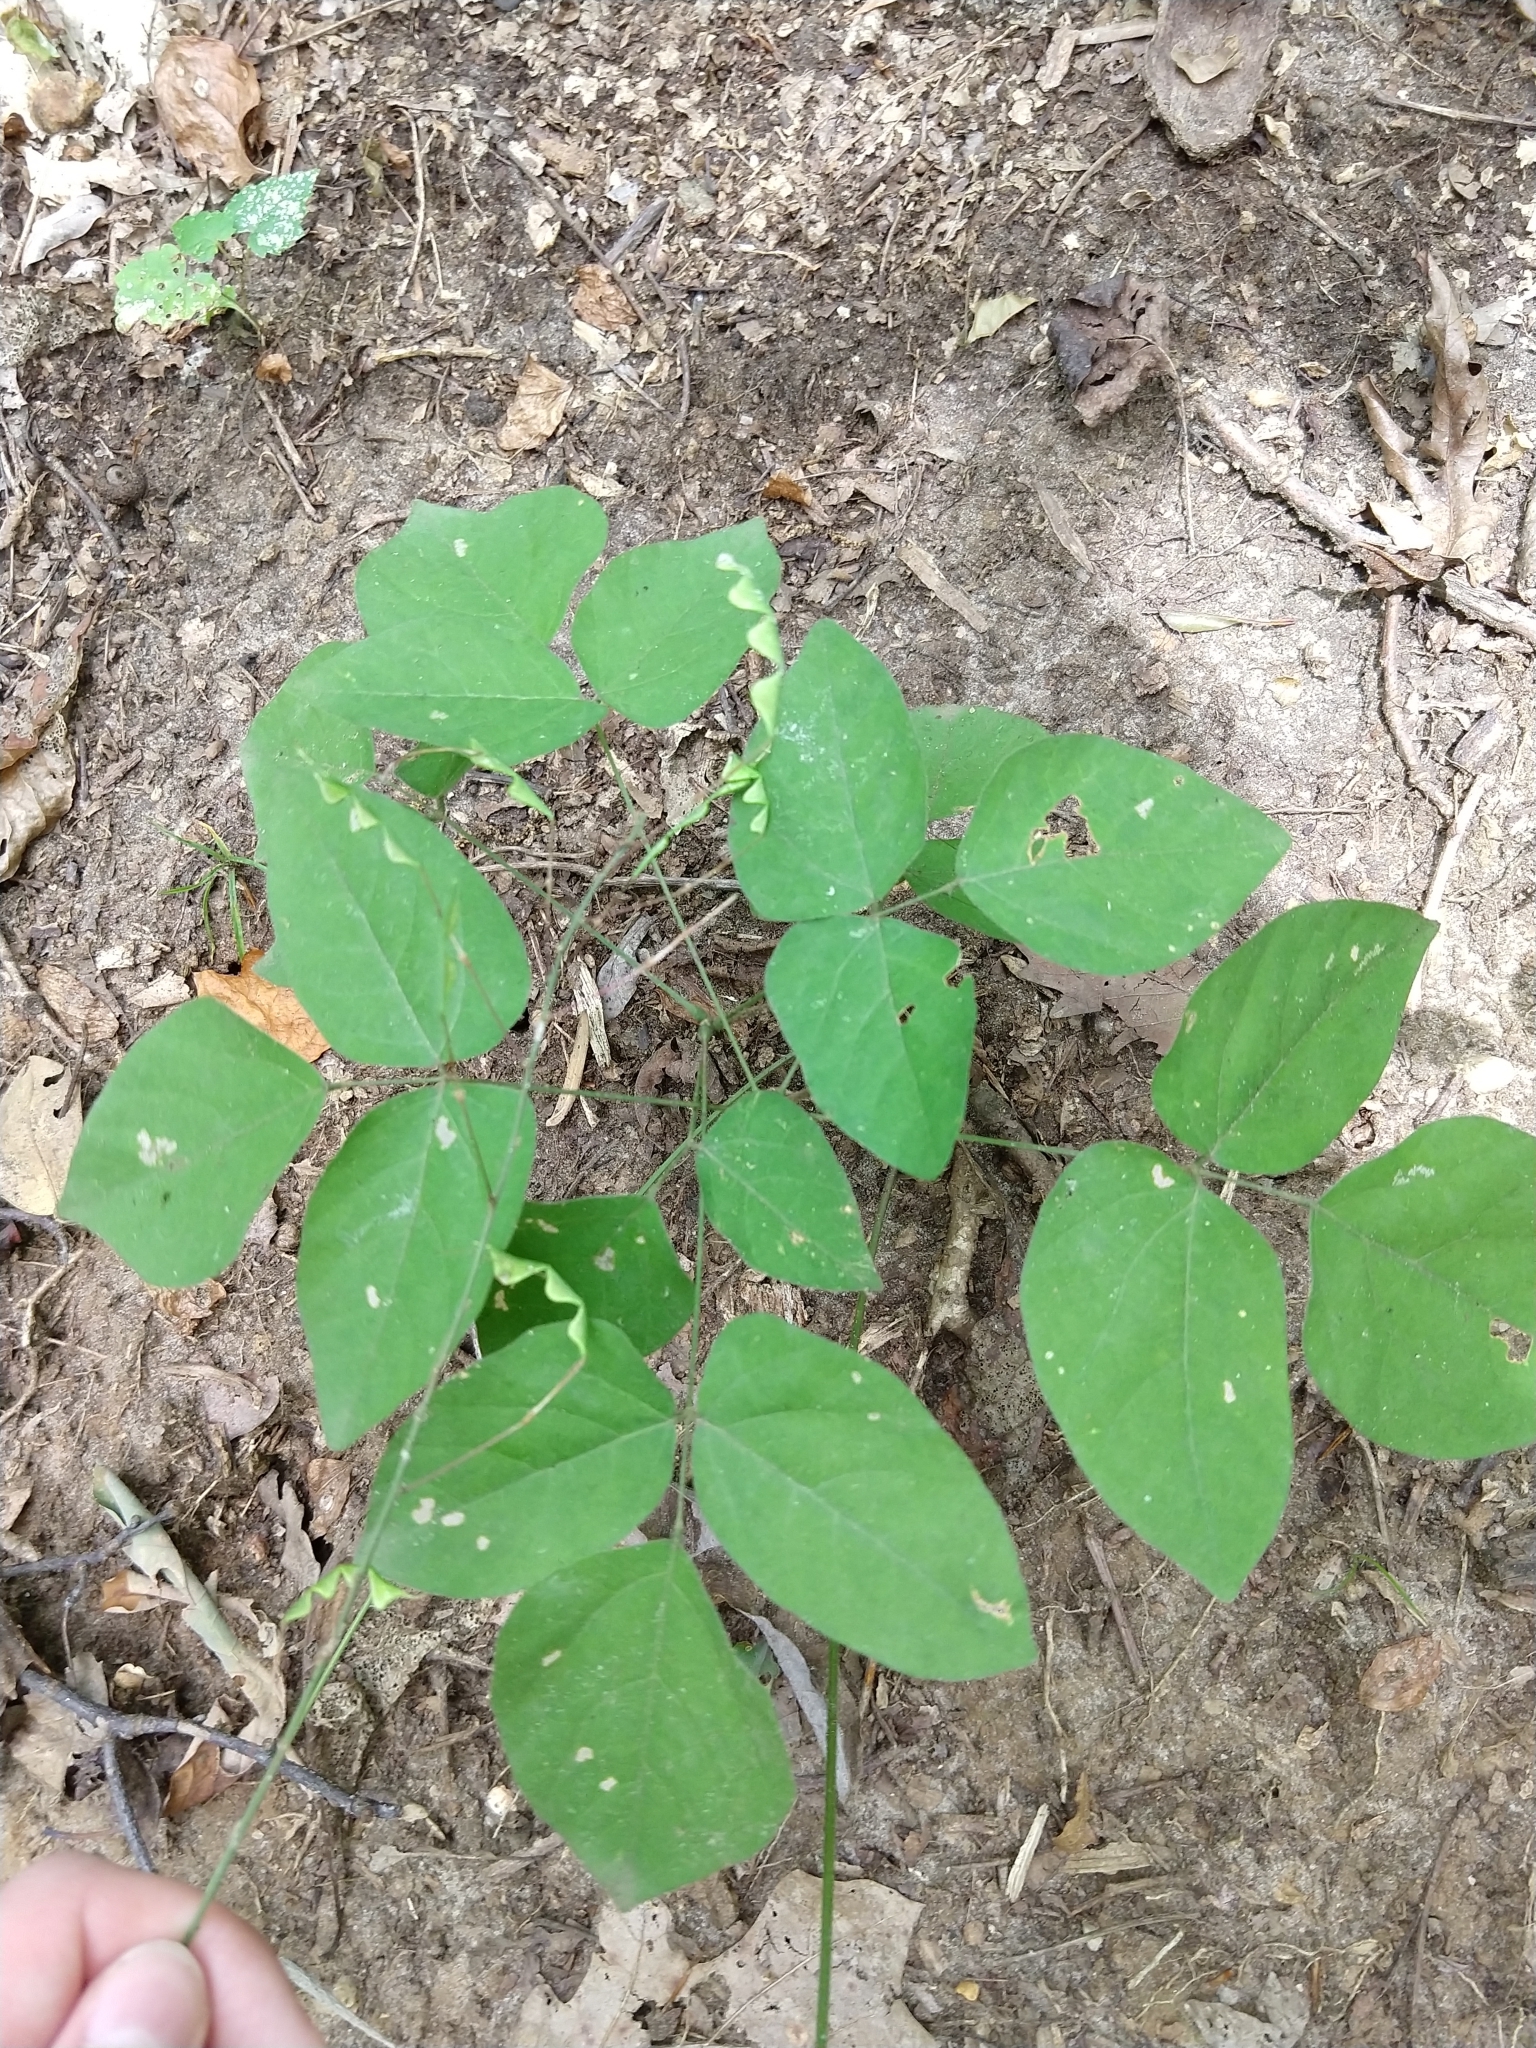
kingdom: Plantae
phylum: Tracheophyta
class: Magnoliopsida
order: Fabales
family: Fabaceae
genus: Hylodesmum
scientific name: Hylodesmum nudiflorum
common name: Bare-stemmed tick-trefoil
